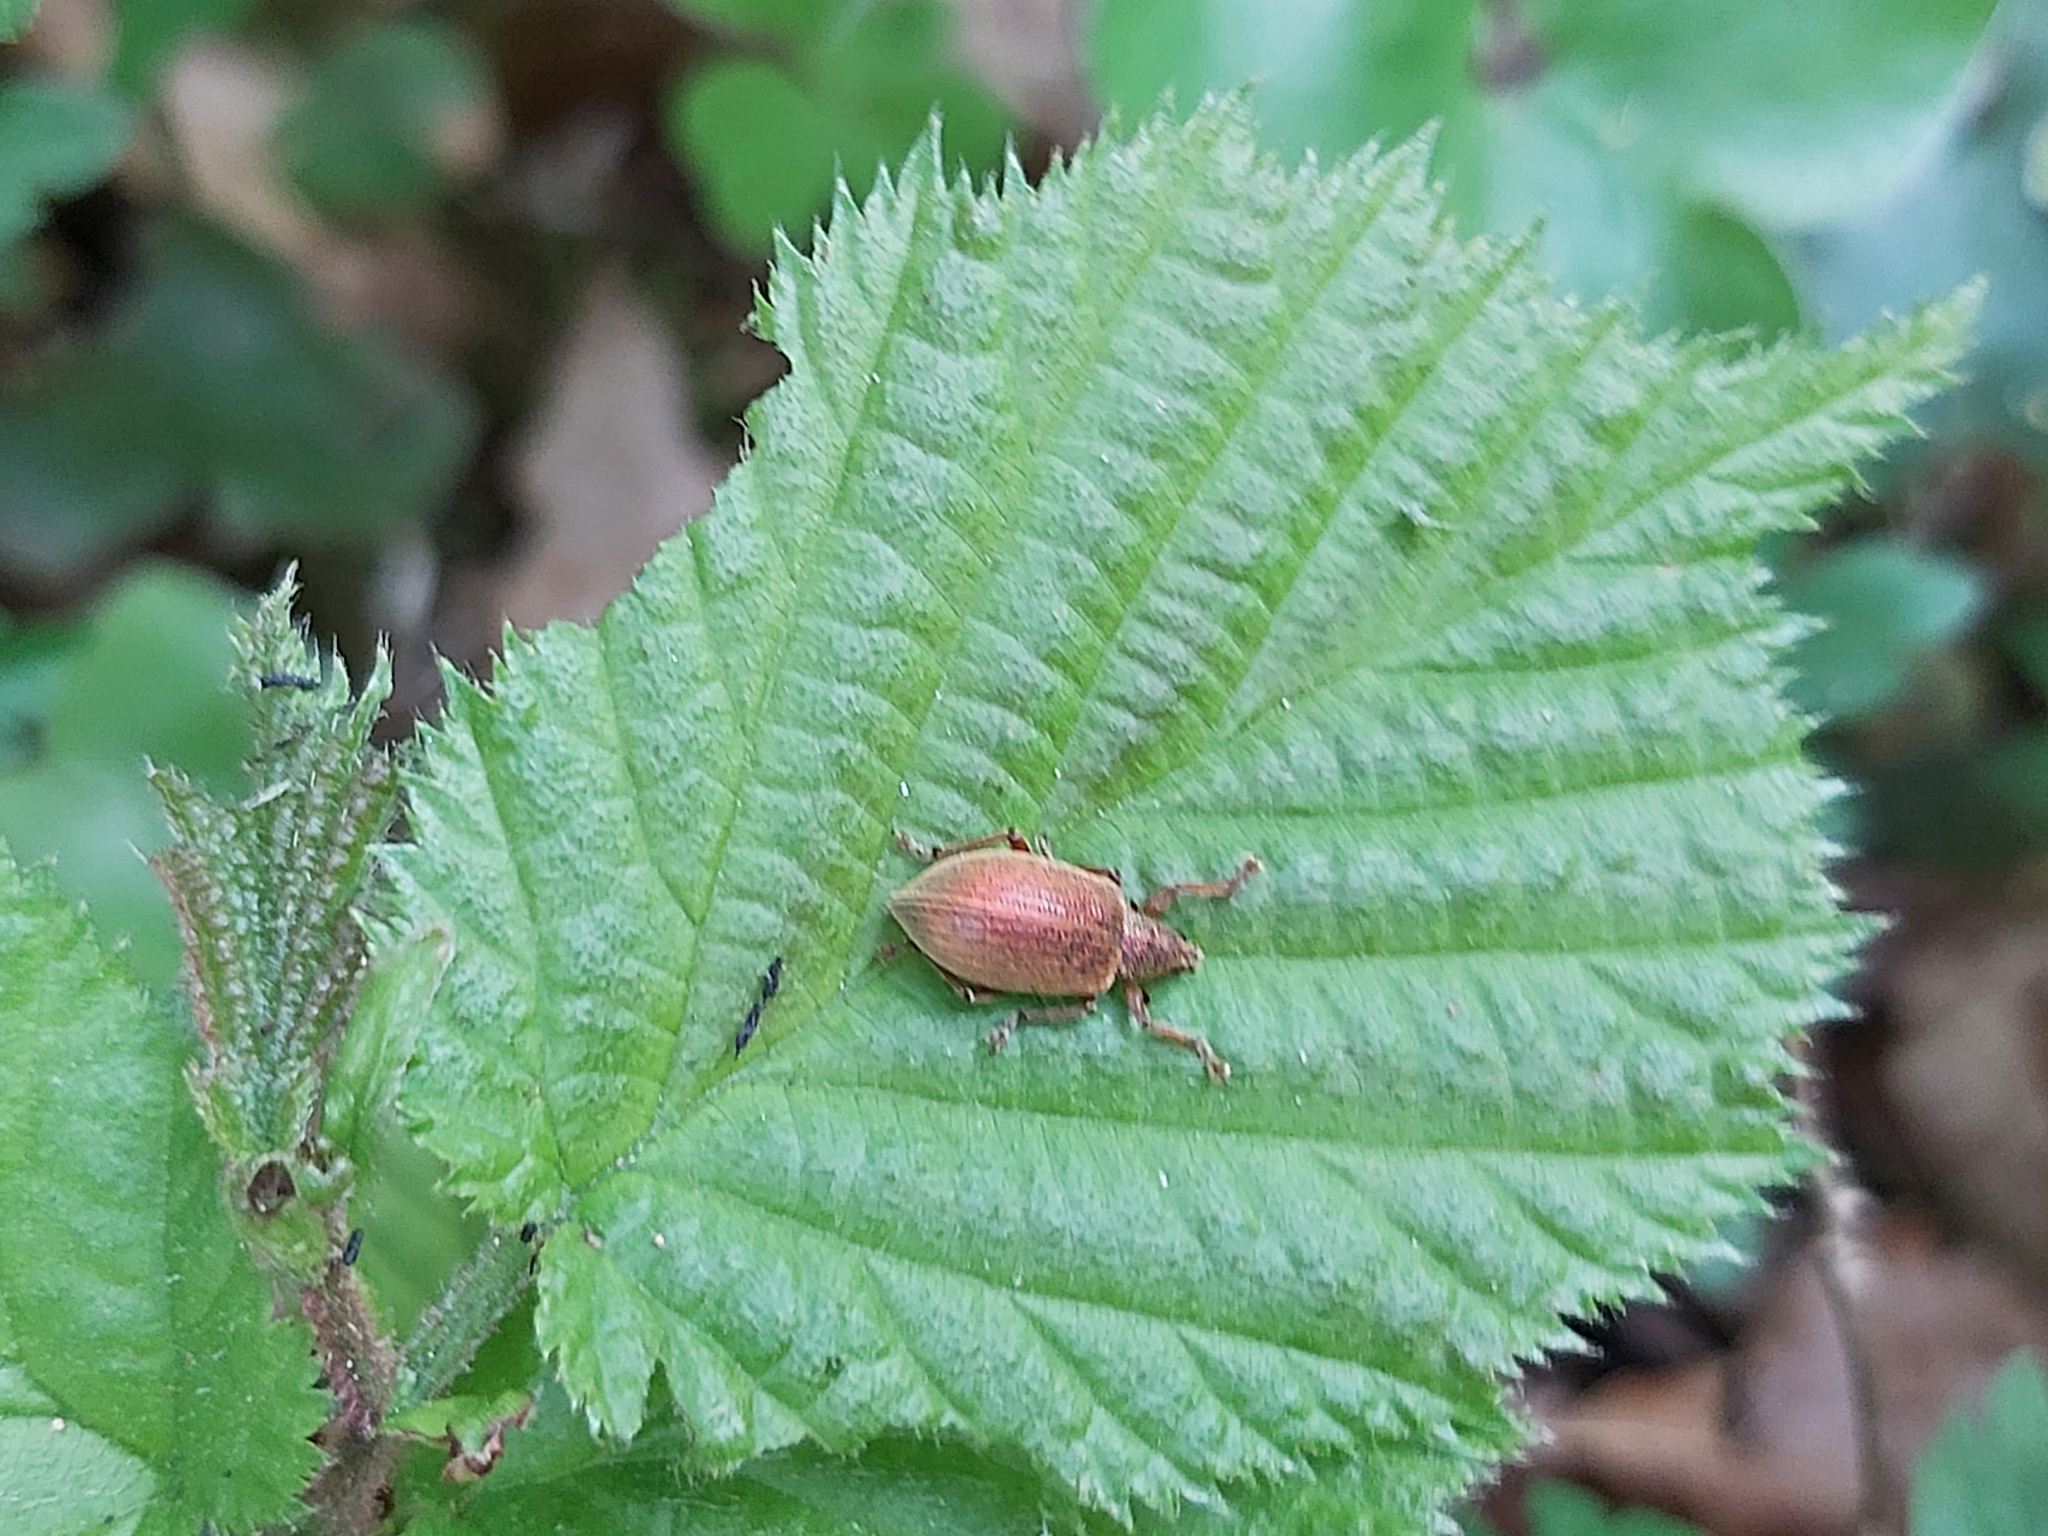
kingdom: Animalia
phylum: Arthropoda
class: Insecta
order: Coleoptera
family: Curculionidae
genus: Polydrusus
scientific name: Polydrusus mollis
